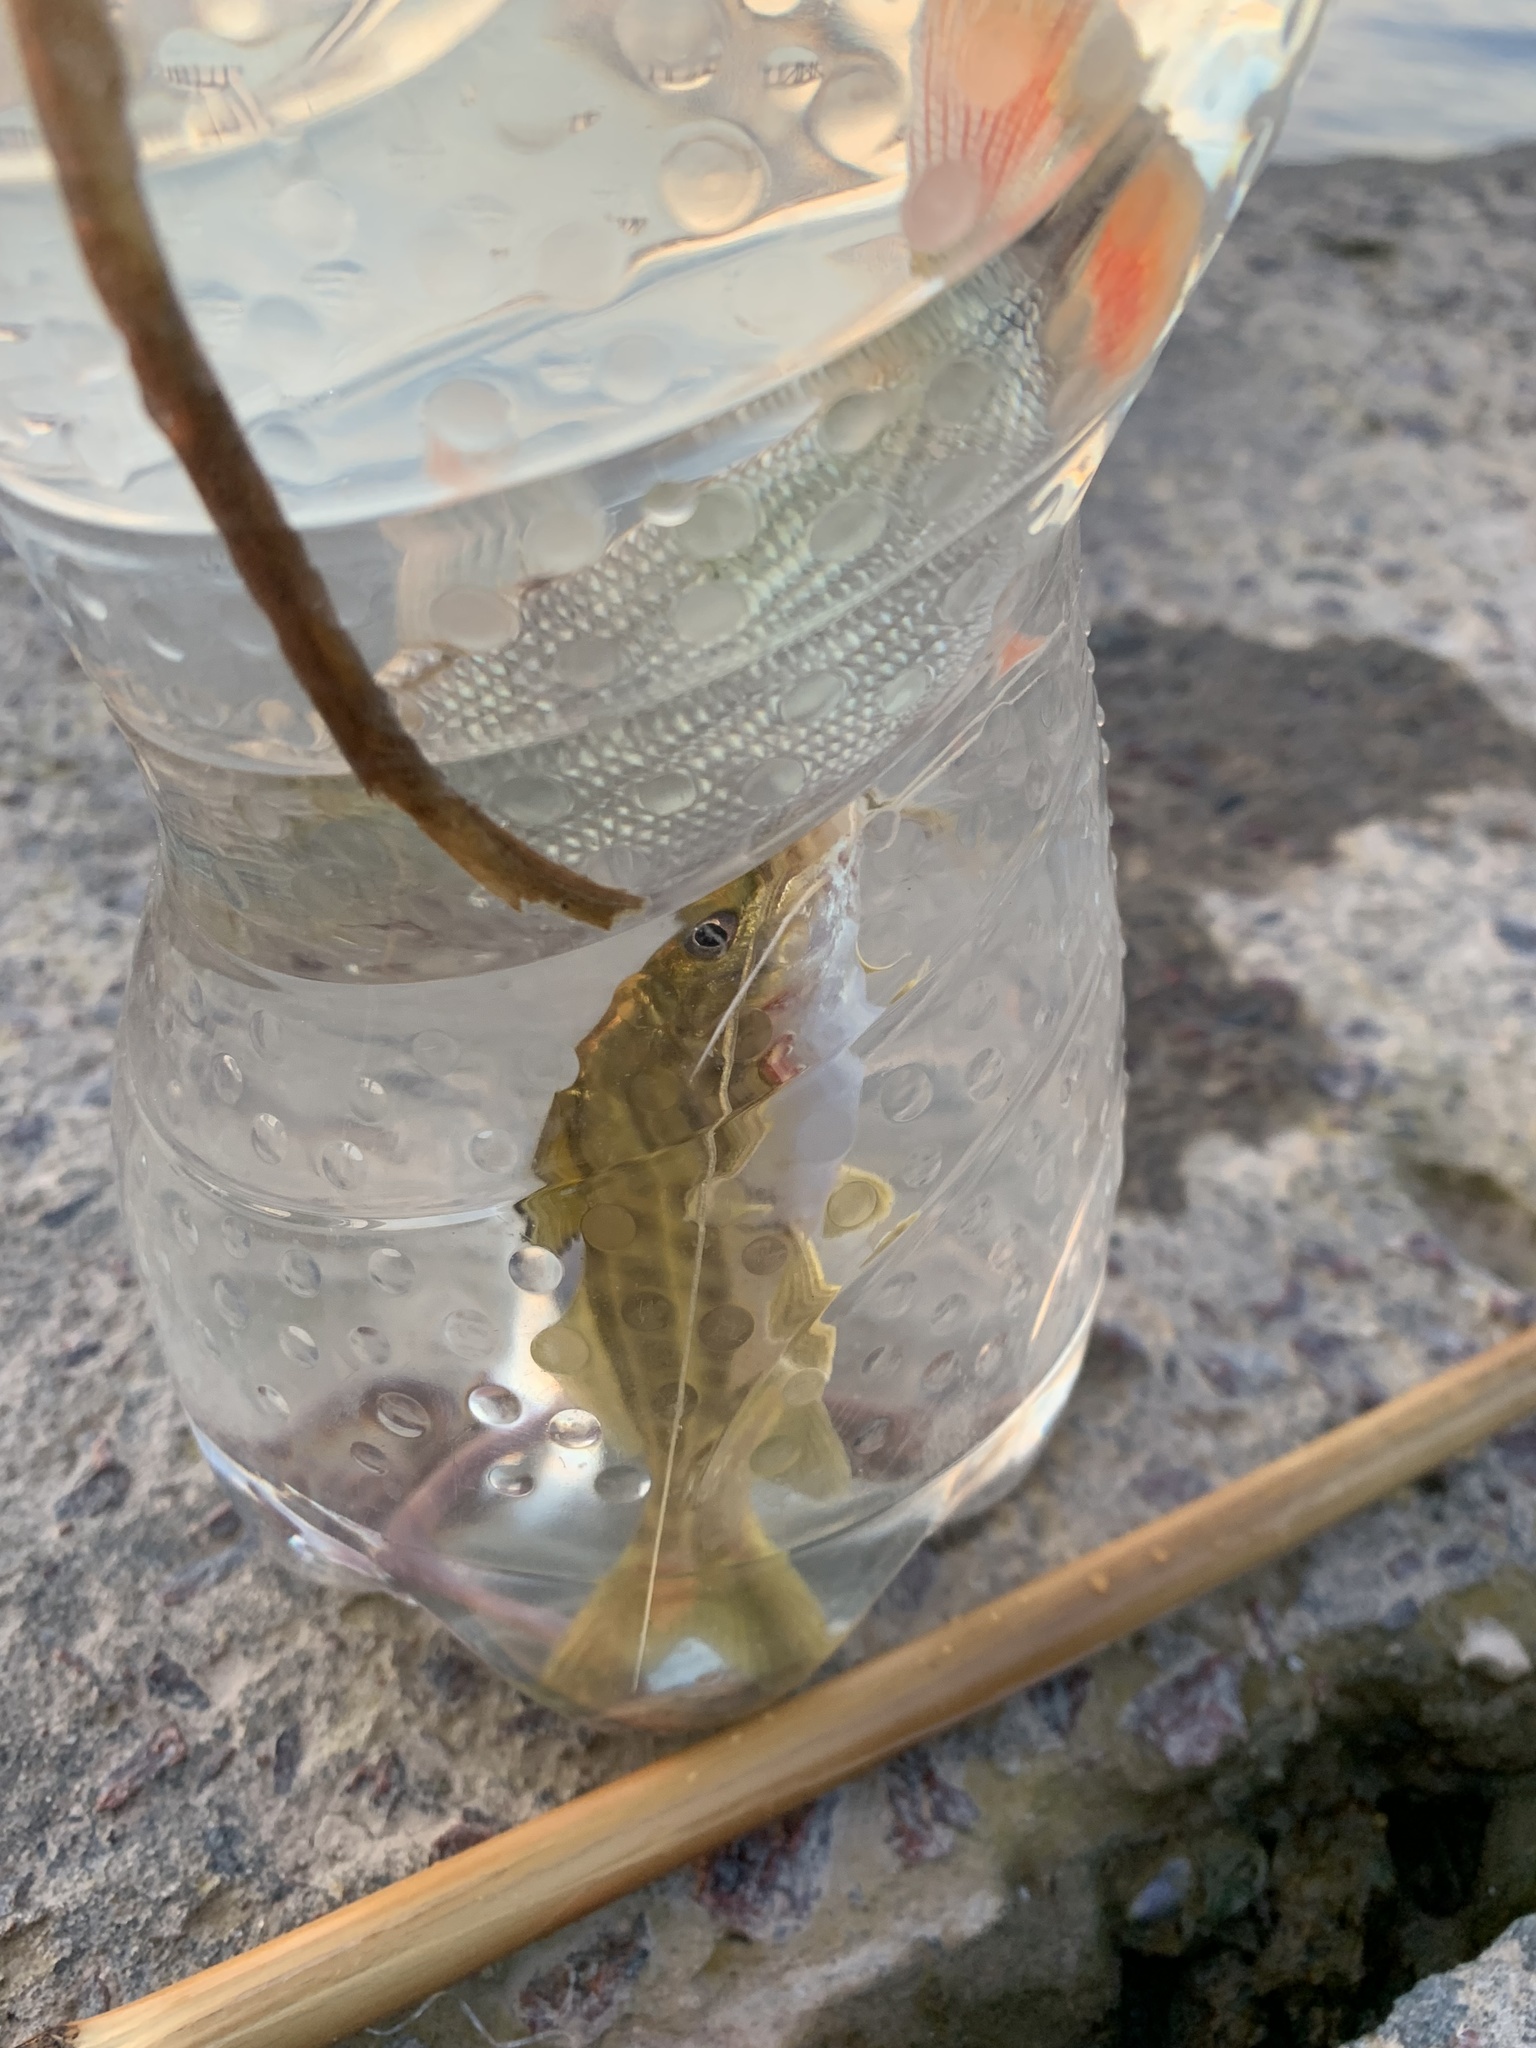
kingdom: Animalia
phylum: Chordata
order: Siluriformes
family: Pimelodidae
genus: Pimelodus
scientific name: Pimelodus maculatus
